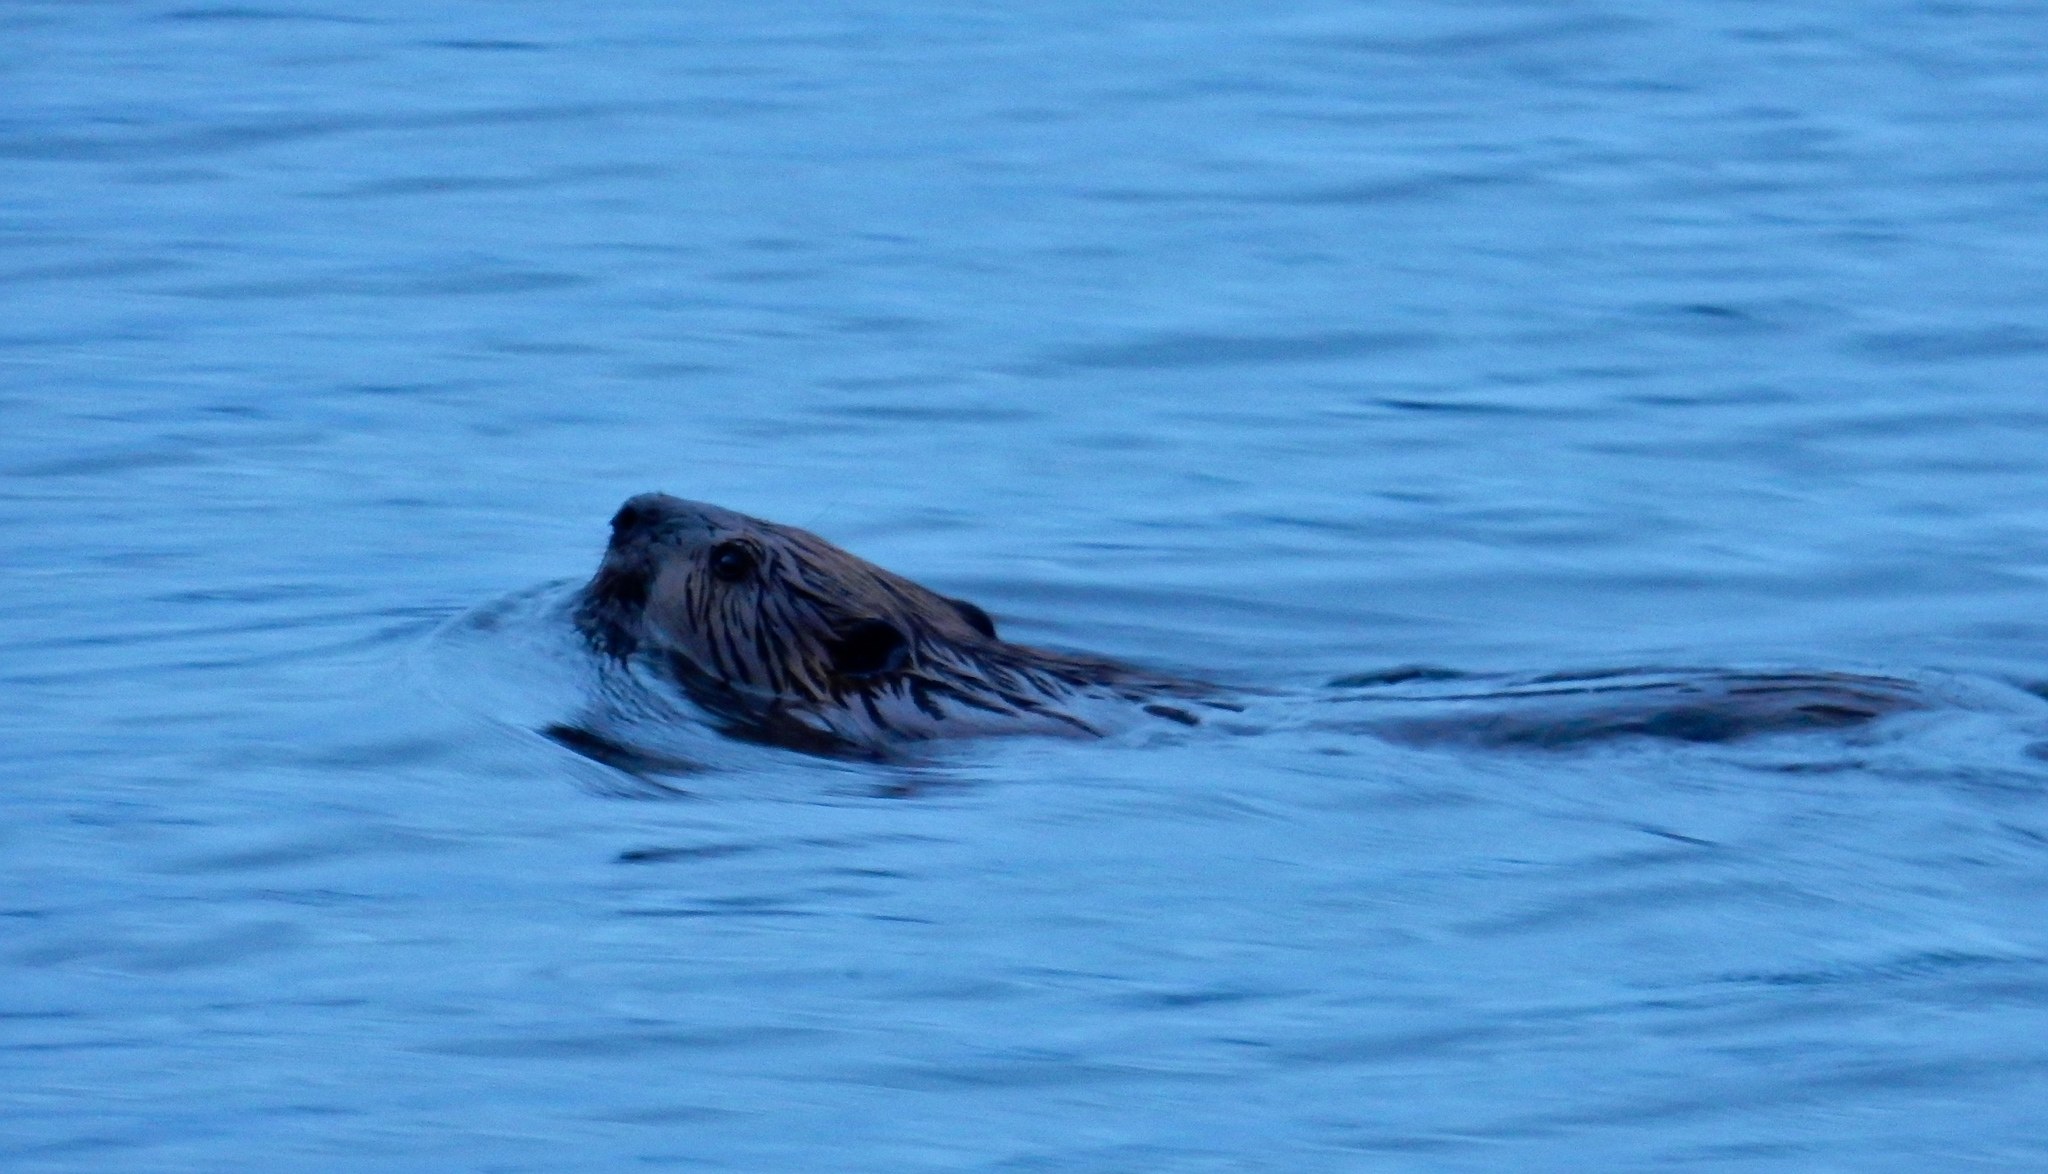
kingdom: Animalia
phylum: Chordata
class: Mammalia
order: Rodentia
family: Castoridae
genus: Castor
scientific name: Castor canadensis
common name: American beaver
